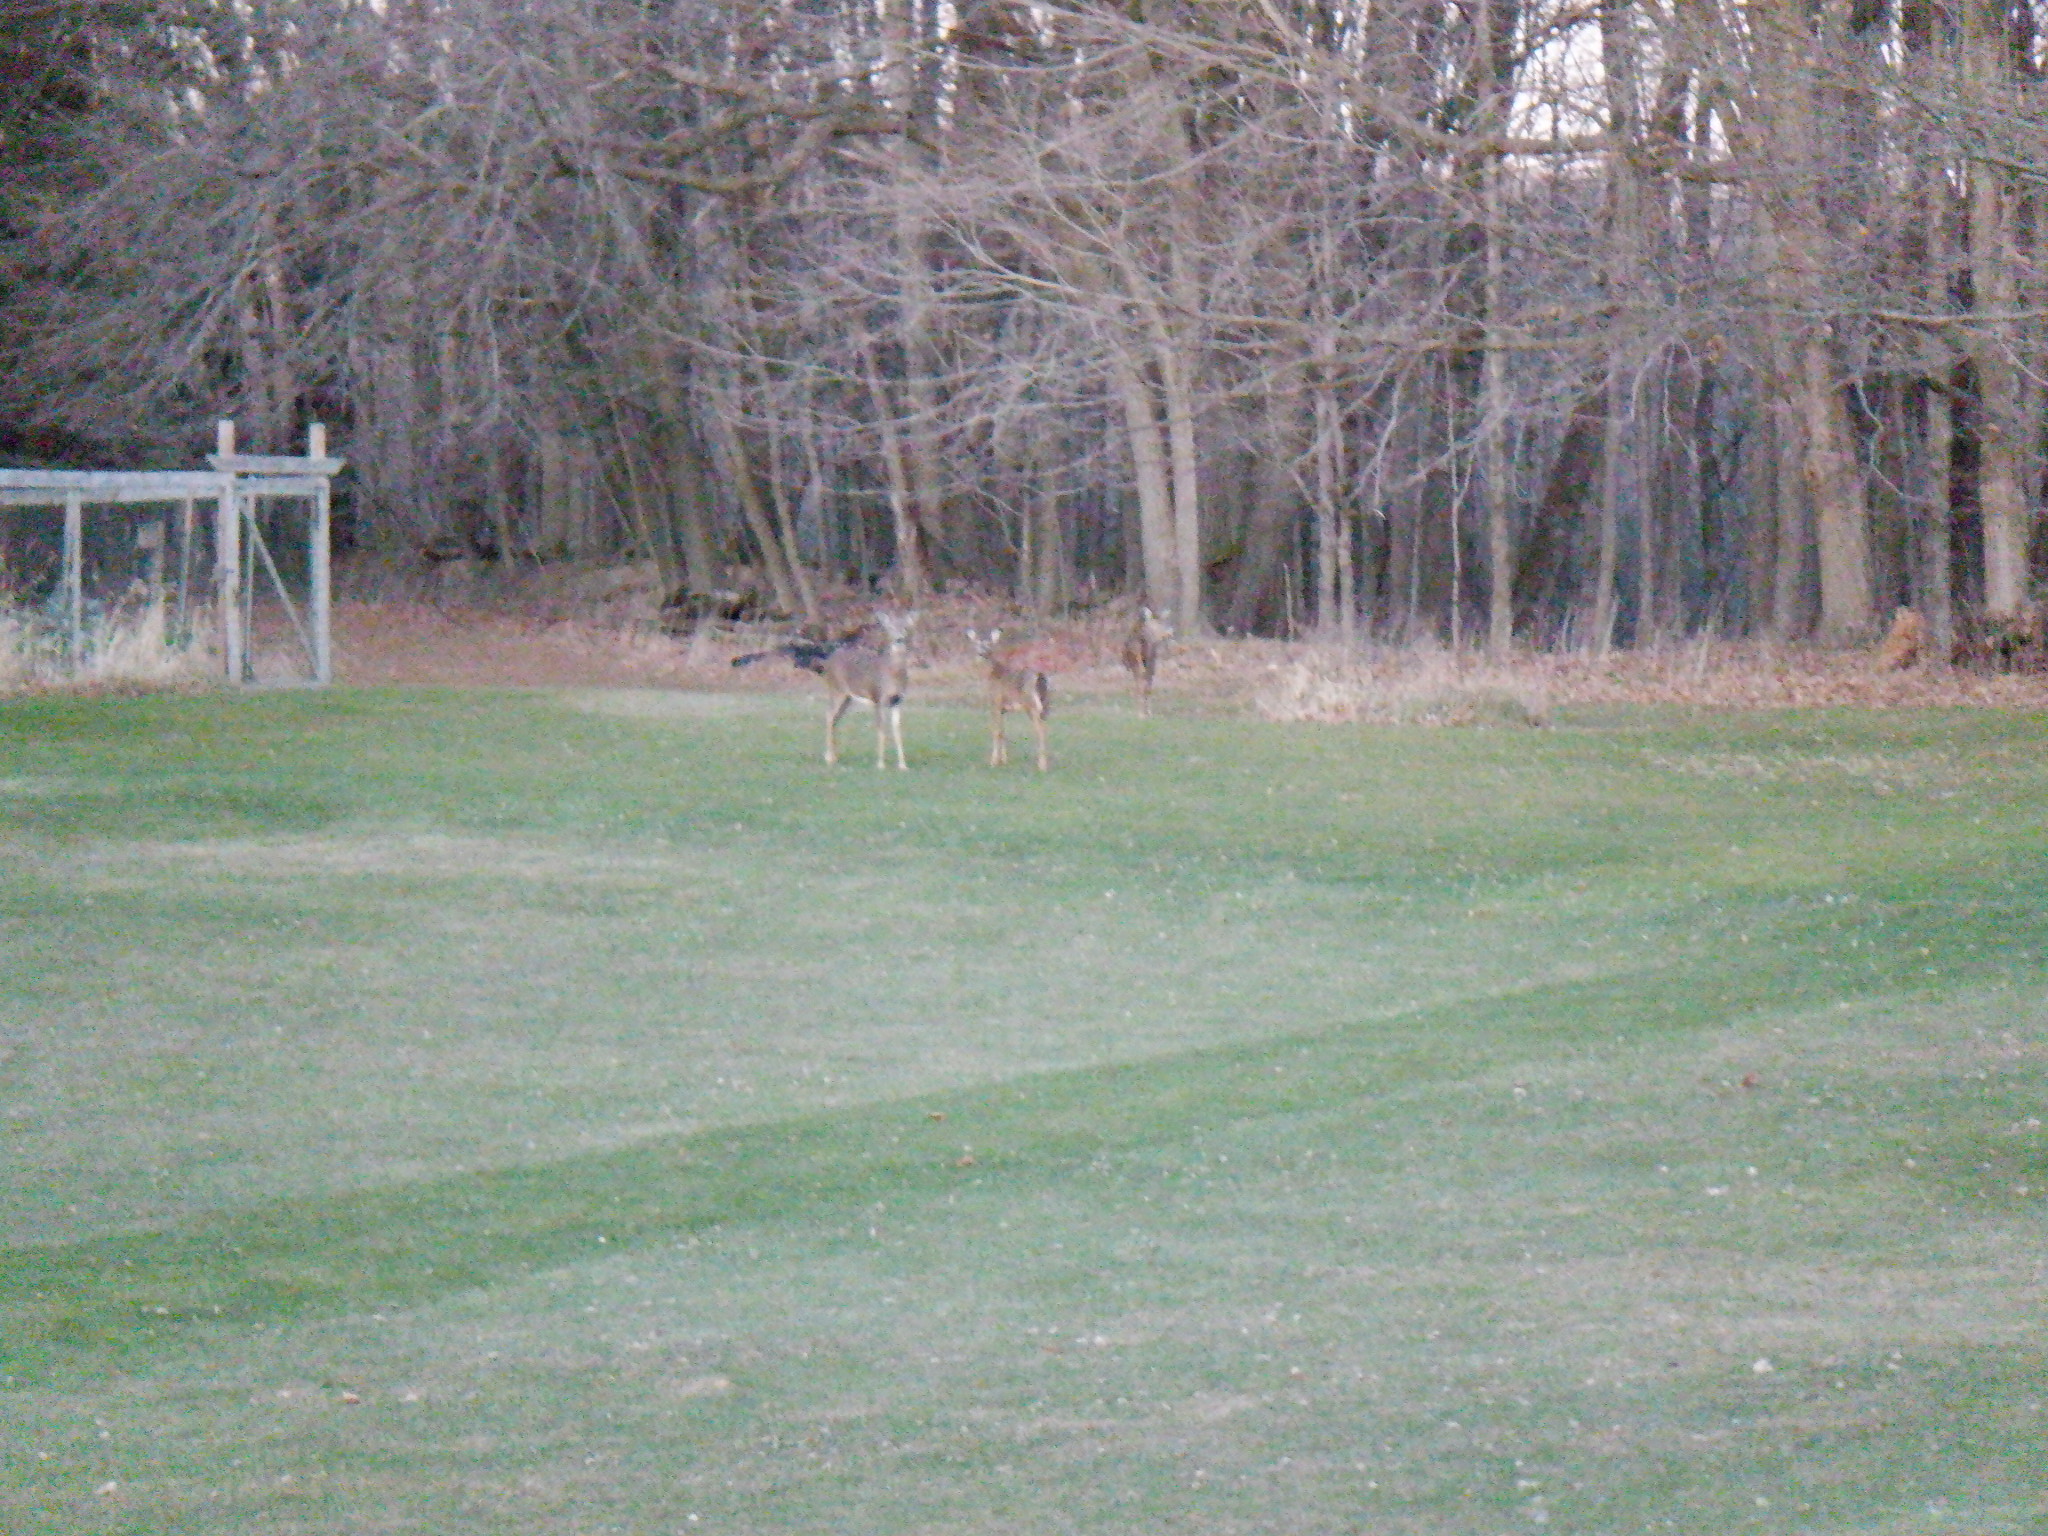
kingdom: Animalia
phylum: Chordata
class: Mammalia
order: Artiodactyla
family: Cervidae
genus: Odocoileus
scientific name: Odocoileus virginianus
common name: White-tailed deer
